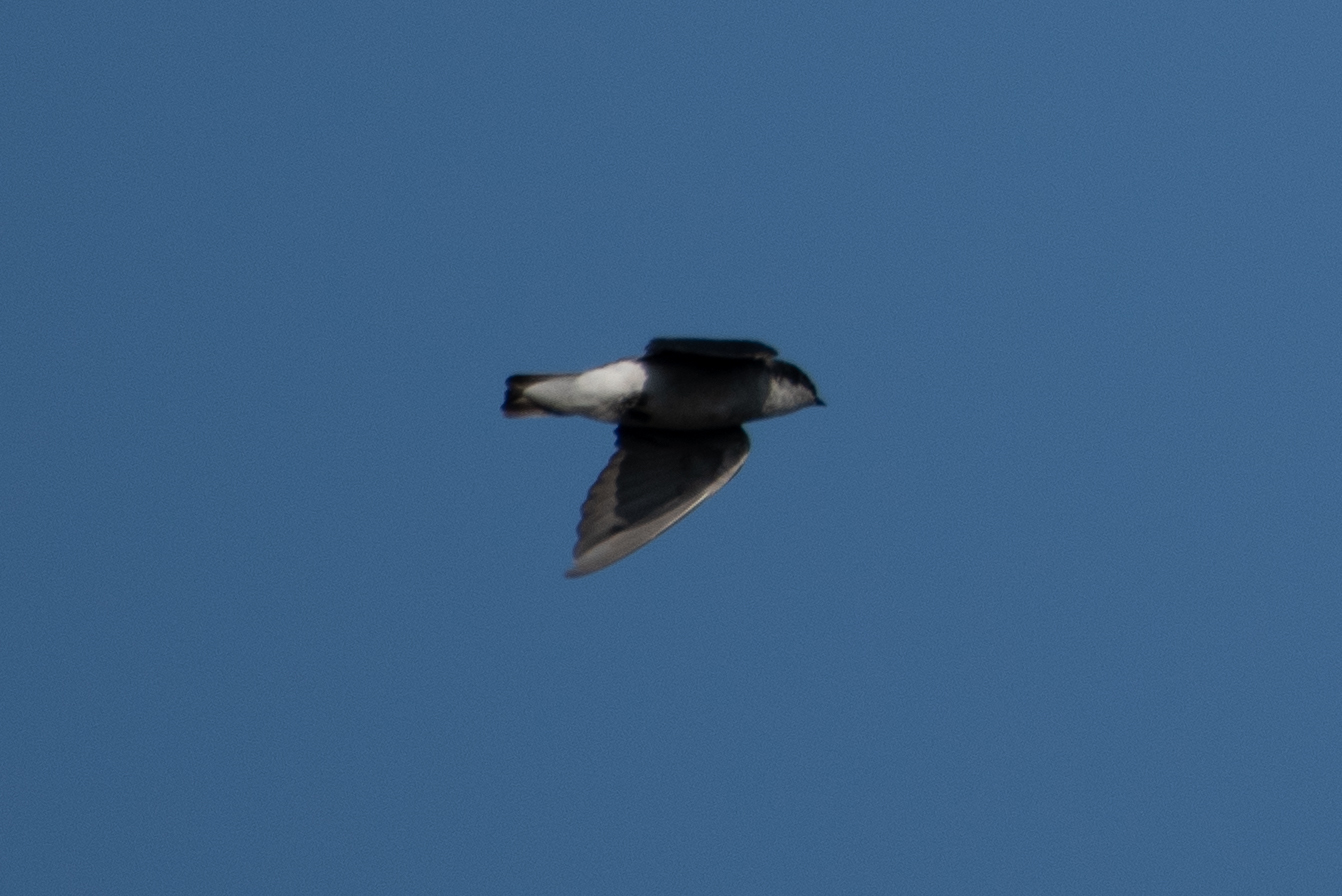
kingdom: Animalia
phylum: Chordata
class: Aves
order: Passeriformes
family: Hirundinidae
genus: Tachycineta
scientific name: Tachycineta bicolor
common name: Tree swallow
